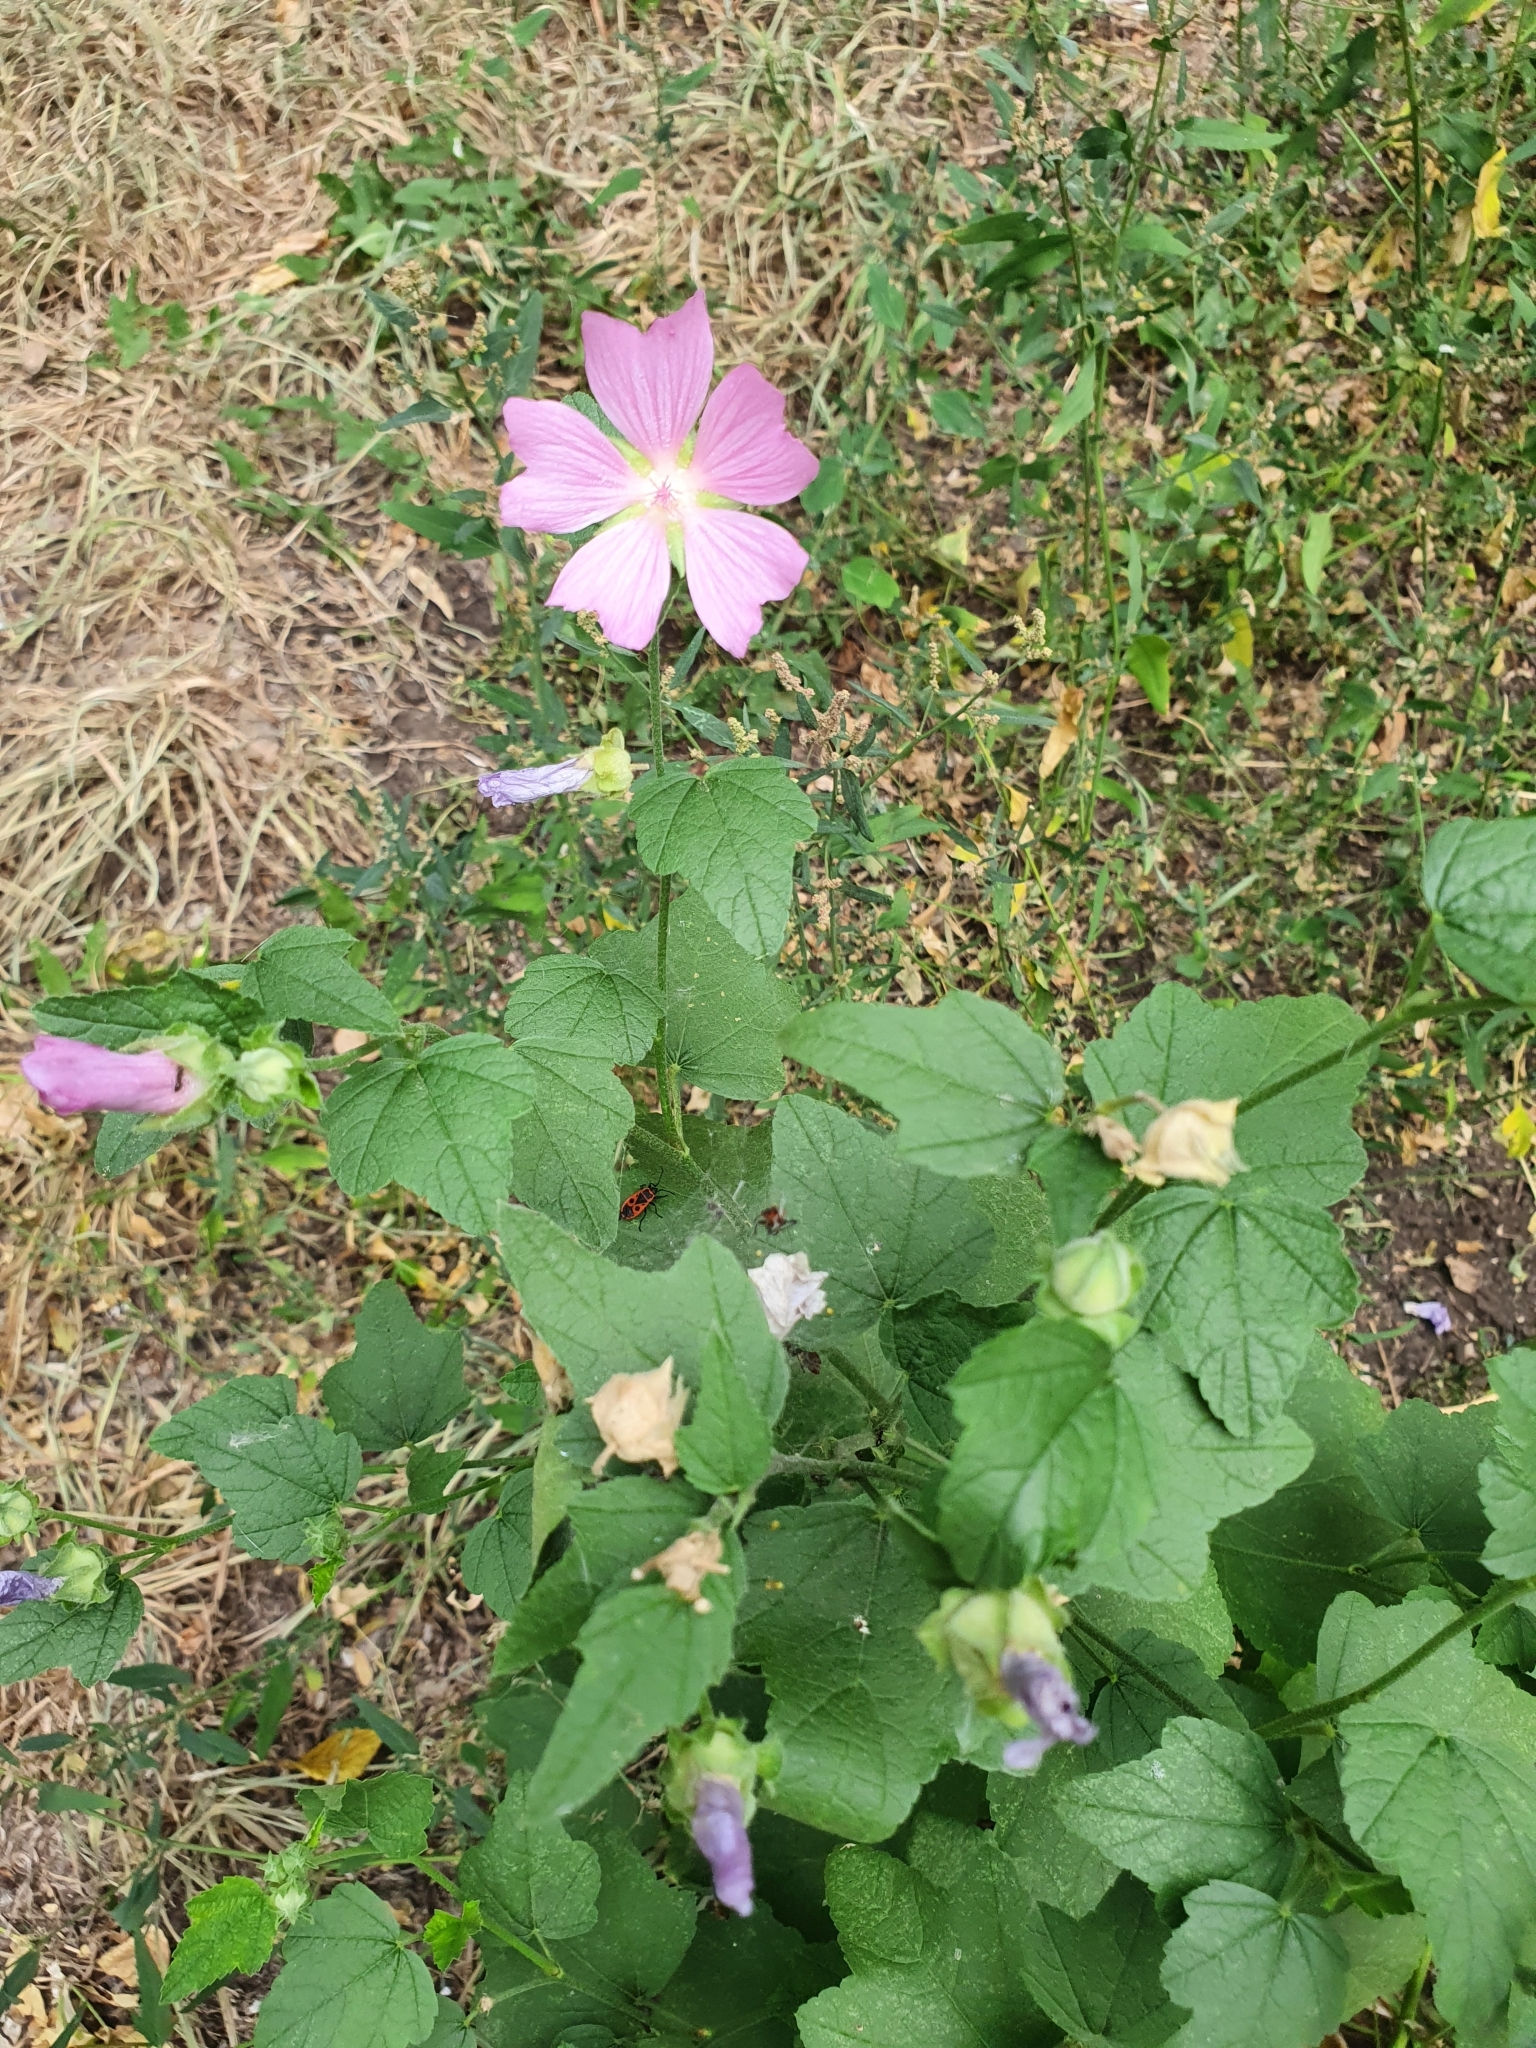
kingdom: Plantae
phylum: Tracheophyta
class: Magnoliopsida
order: Malvales
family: Malvaceae
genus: Malva
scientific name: Malva thuringiaca
